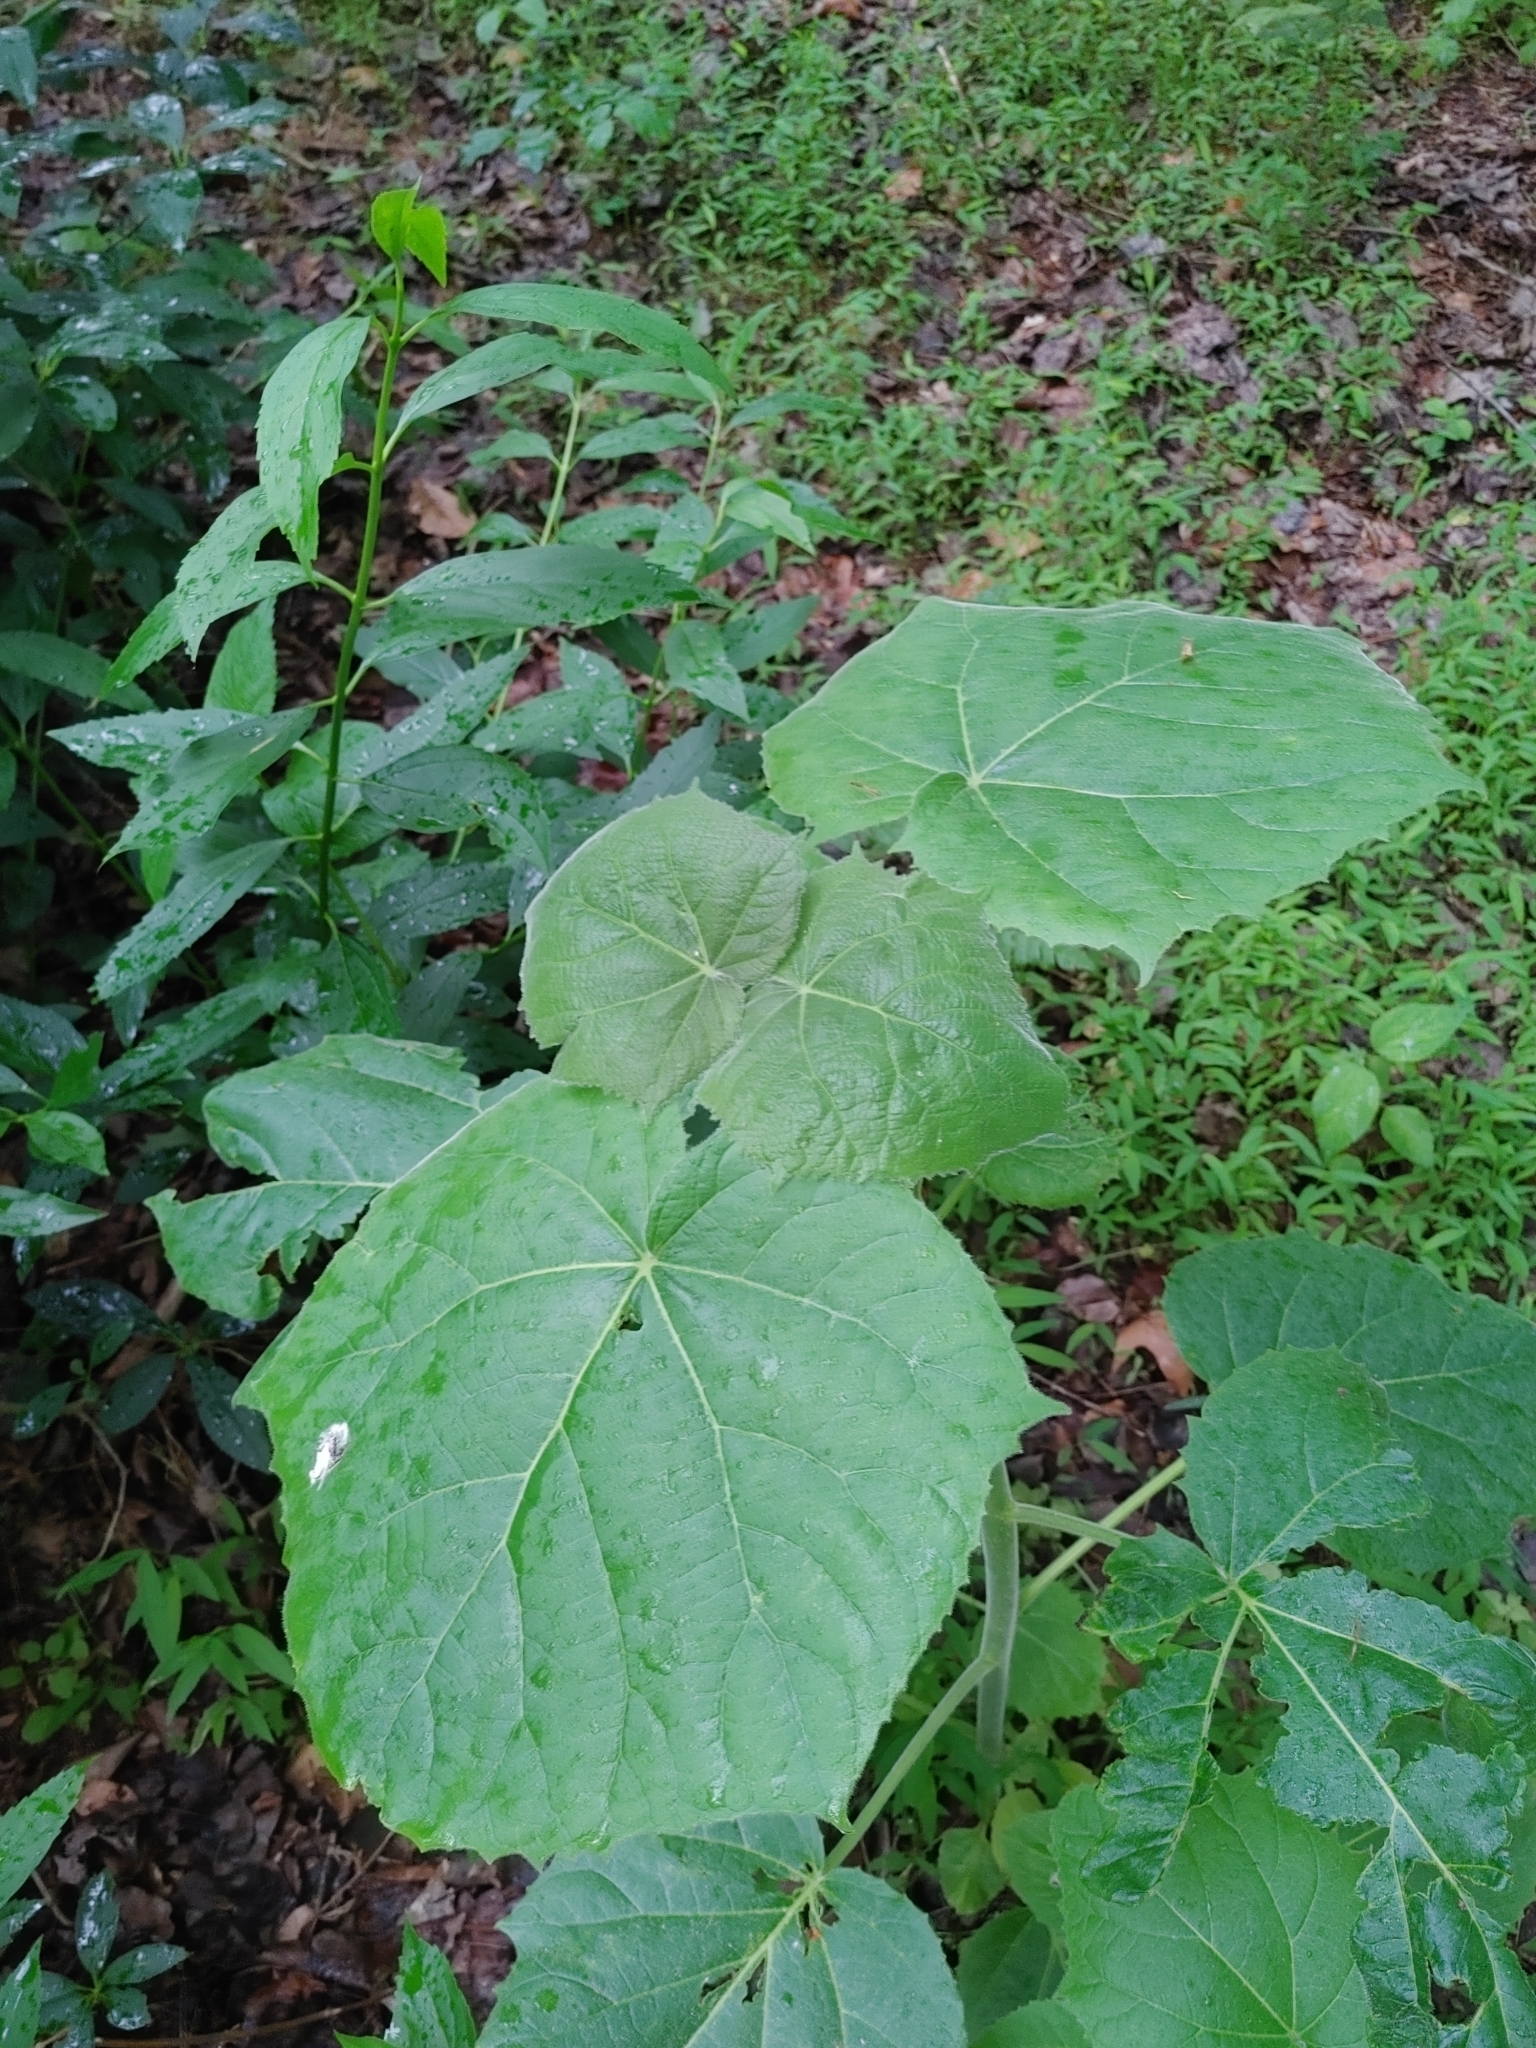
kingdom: Plantae
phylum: Tracheophyta
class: Magnoliopsida
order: Lamiales
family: Paulowniaceae
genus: Paulownia
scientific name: Paulownia tomentosa
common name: Foxglove-tree
